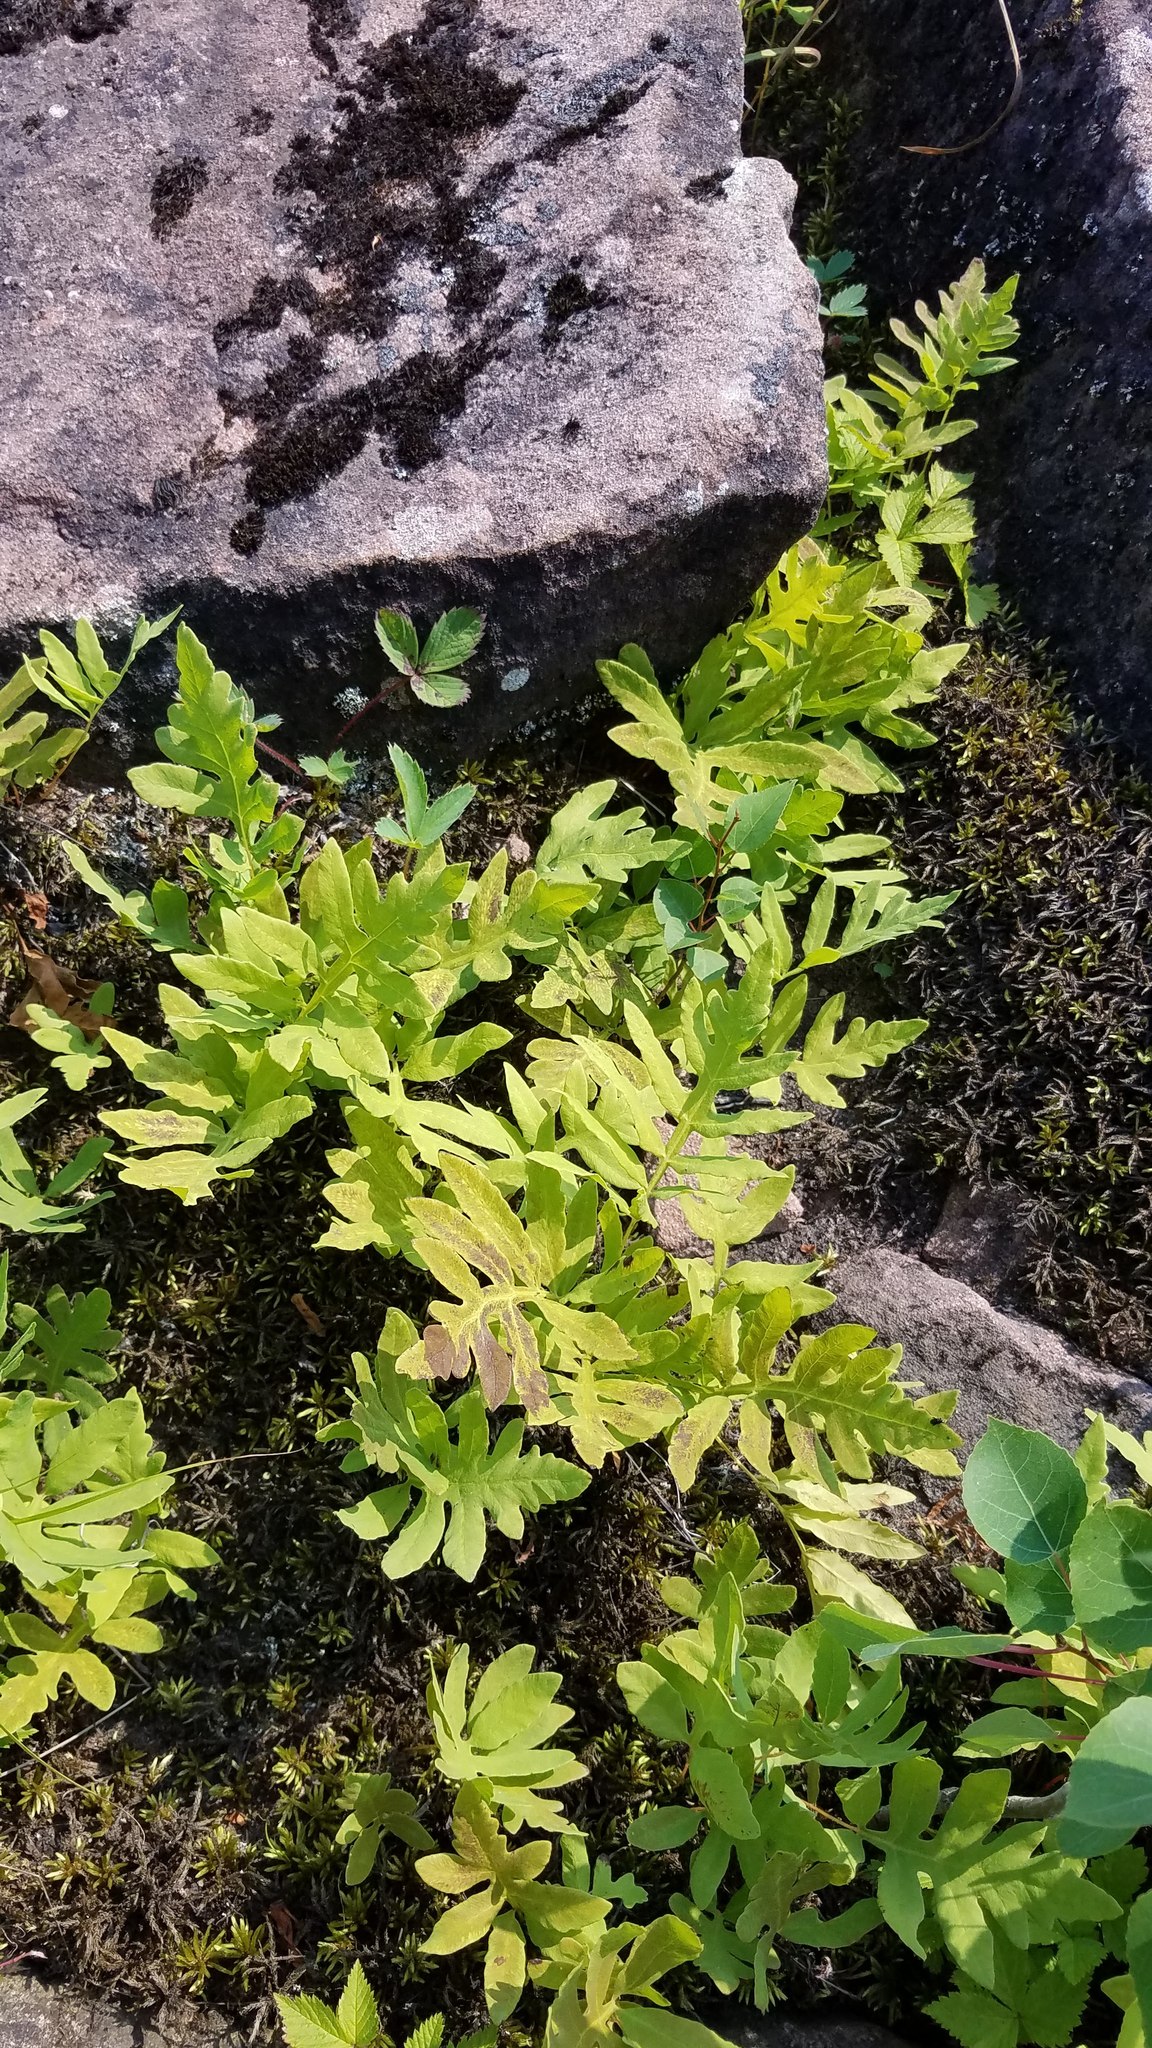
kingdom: Plantae
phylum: Tracheophyta
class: Polypodiopsida
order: Polypodiales
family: Onocleaceae
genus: Onoclea
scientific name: Onoclea sensibilis
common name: Sensitive fern
